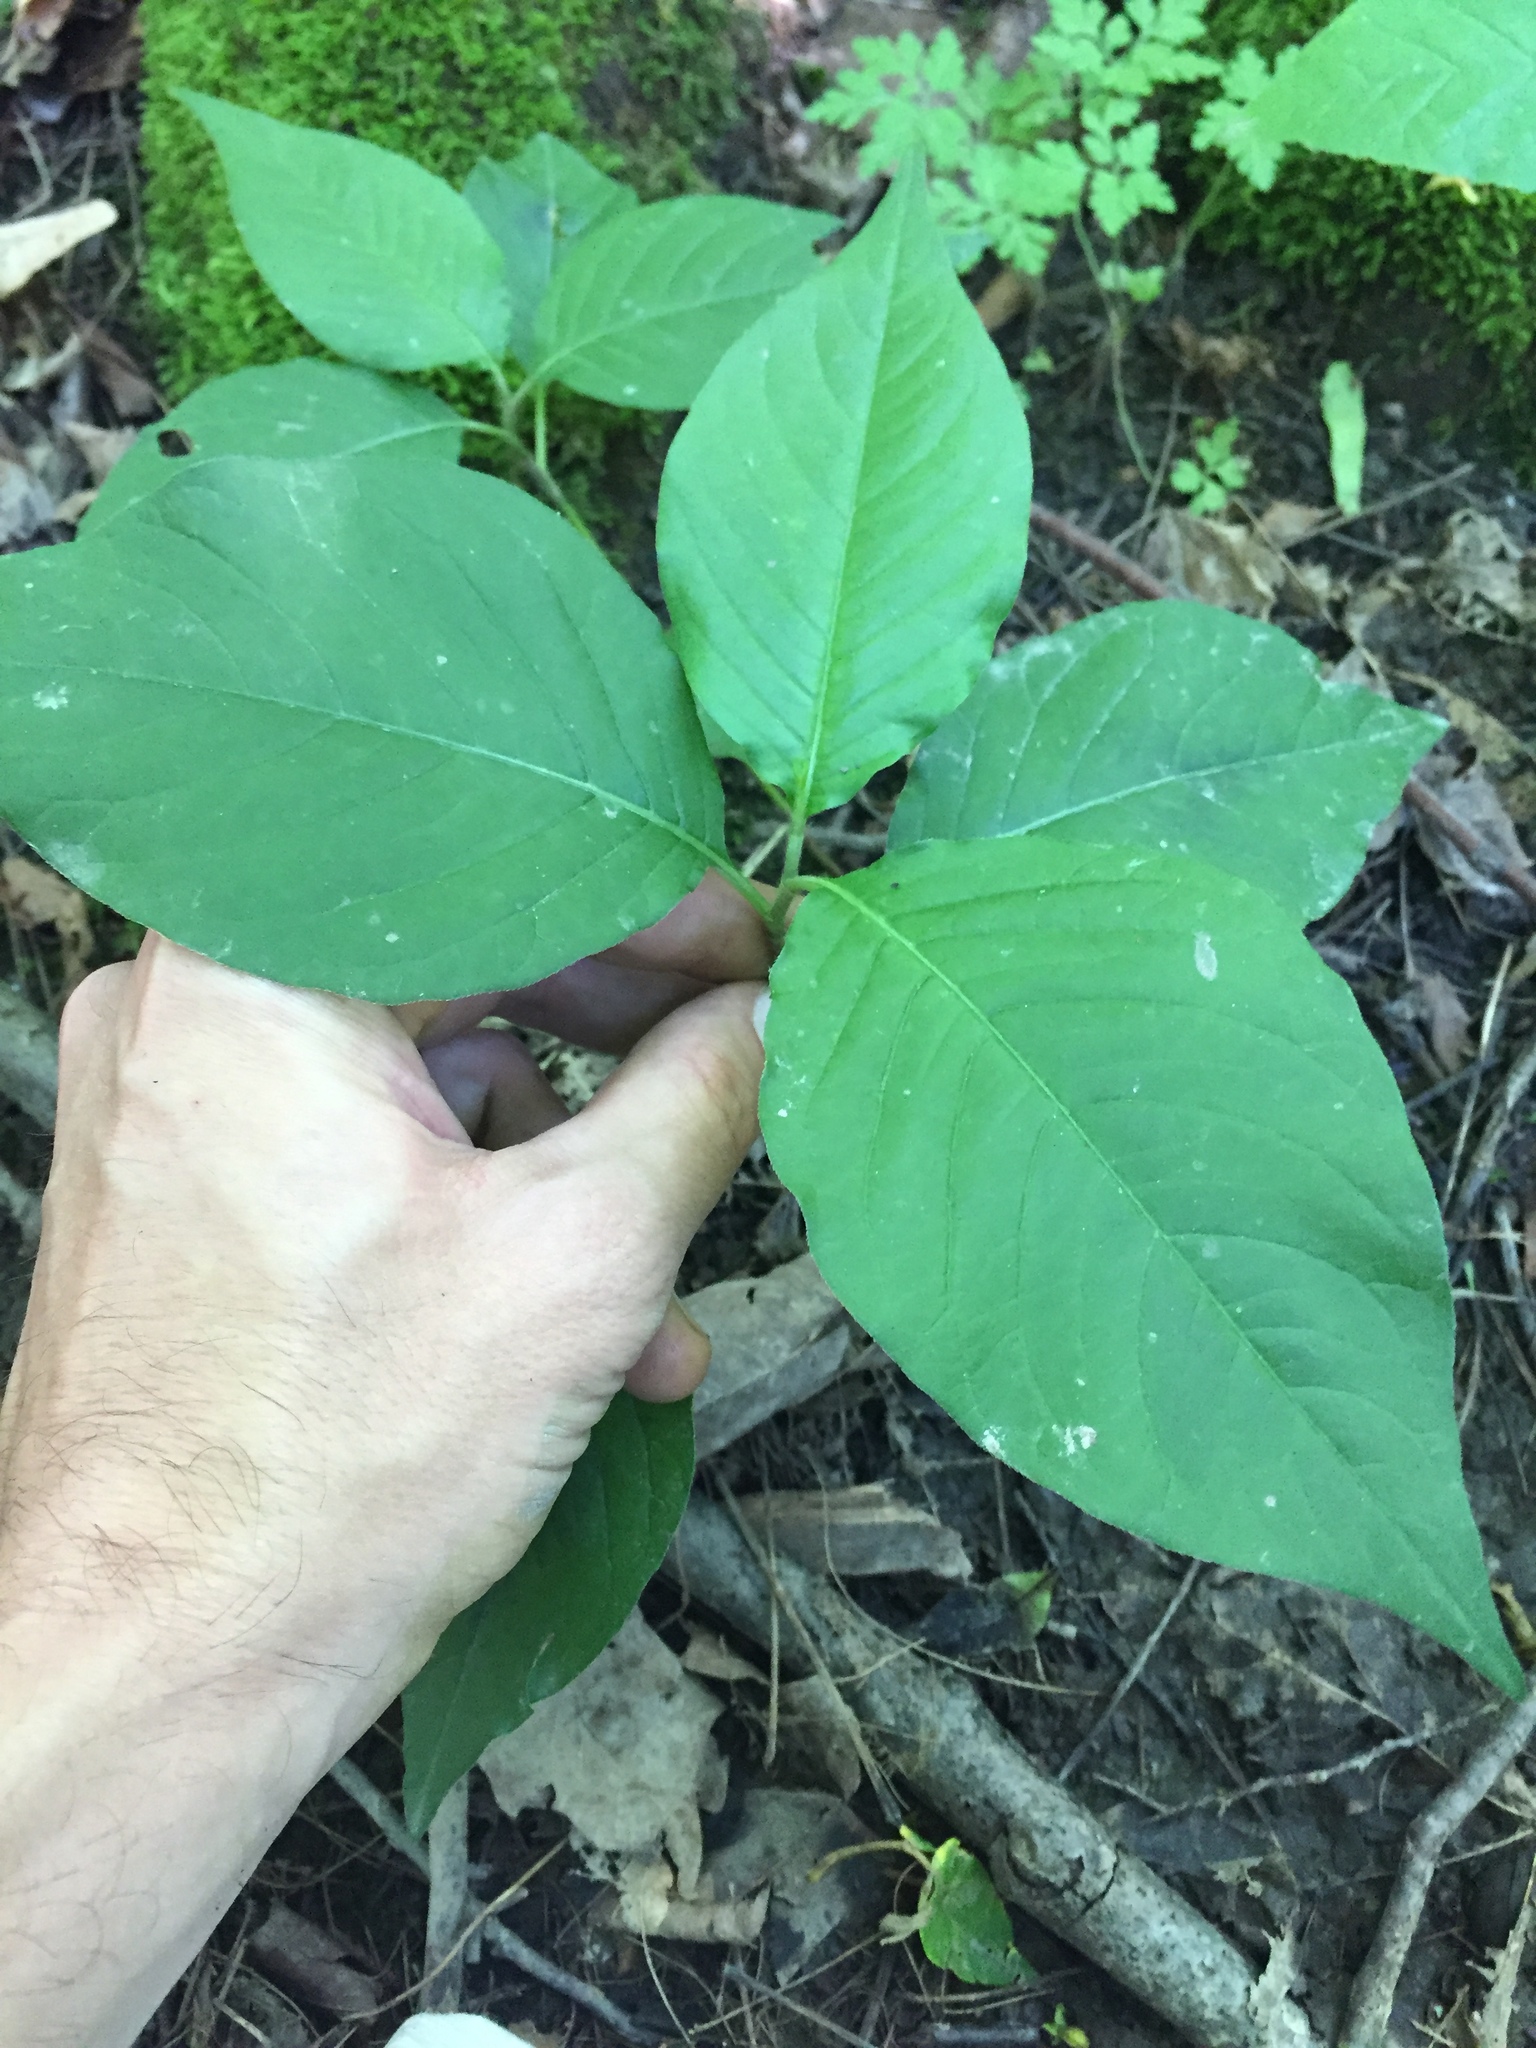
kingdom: Plantae
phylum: Tracheophyta
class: Magnoliopsida
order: Caryophyllales
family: Polygonaceae
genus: Persicaria
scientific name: Persicaria virginiana
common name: Jumpseed
